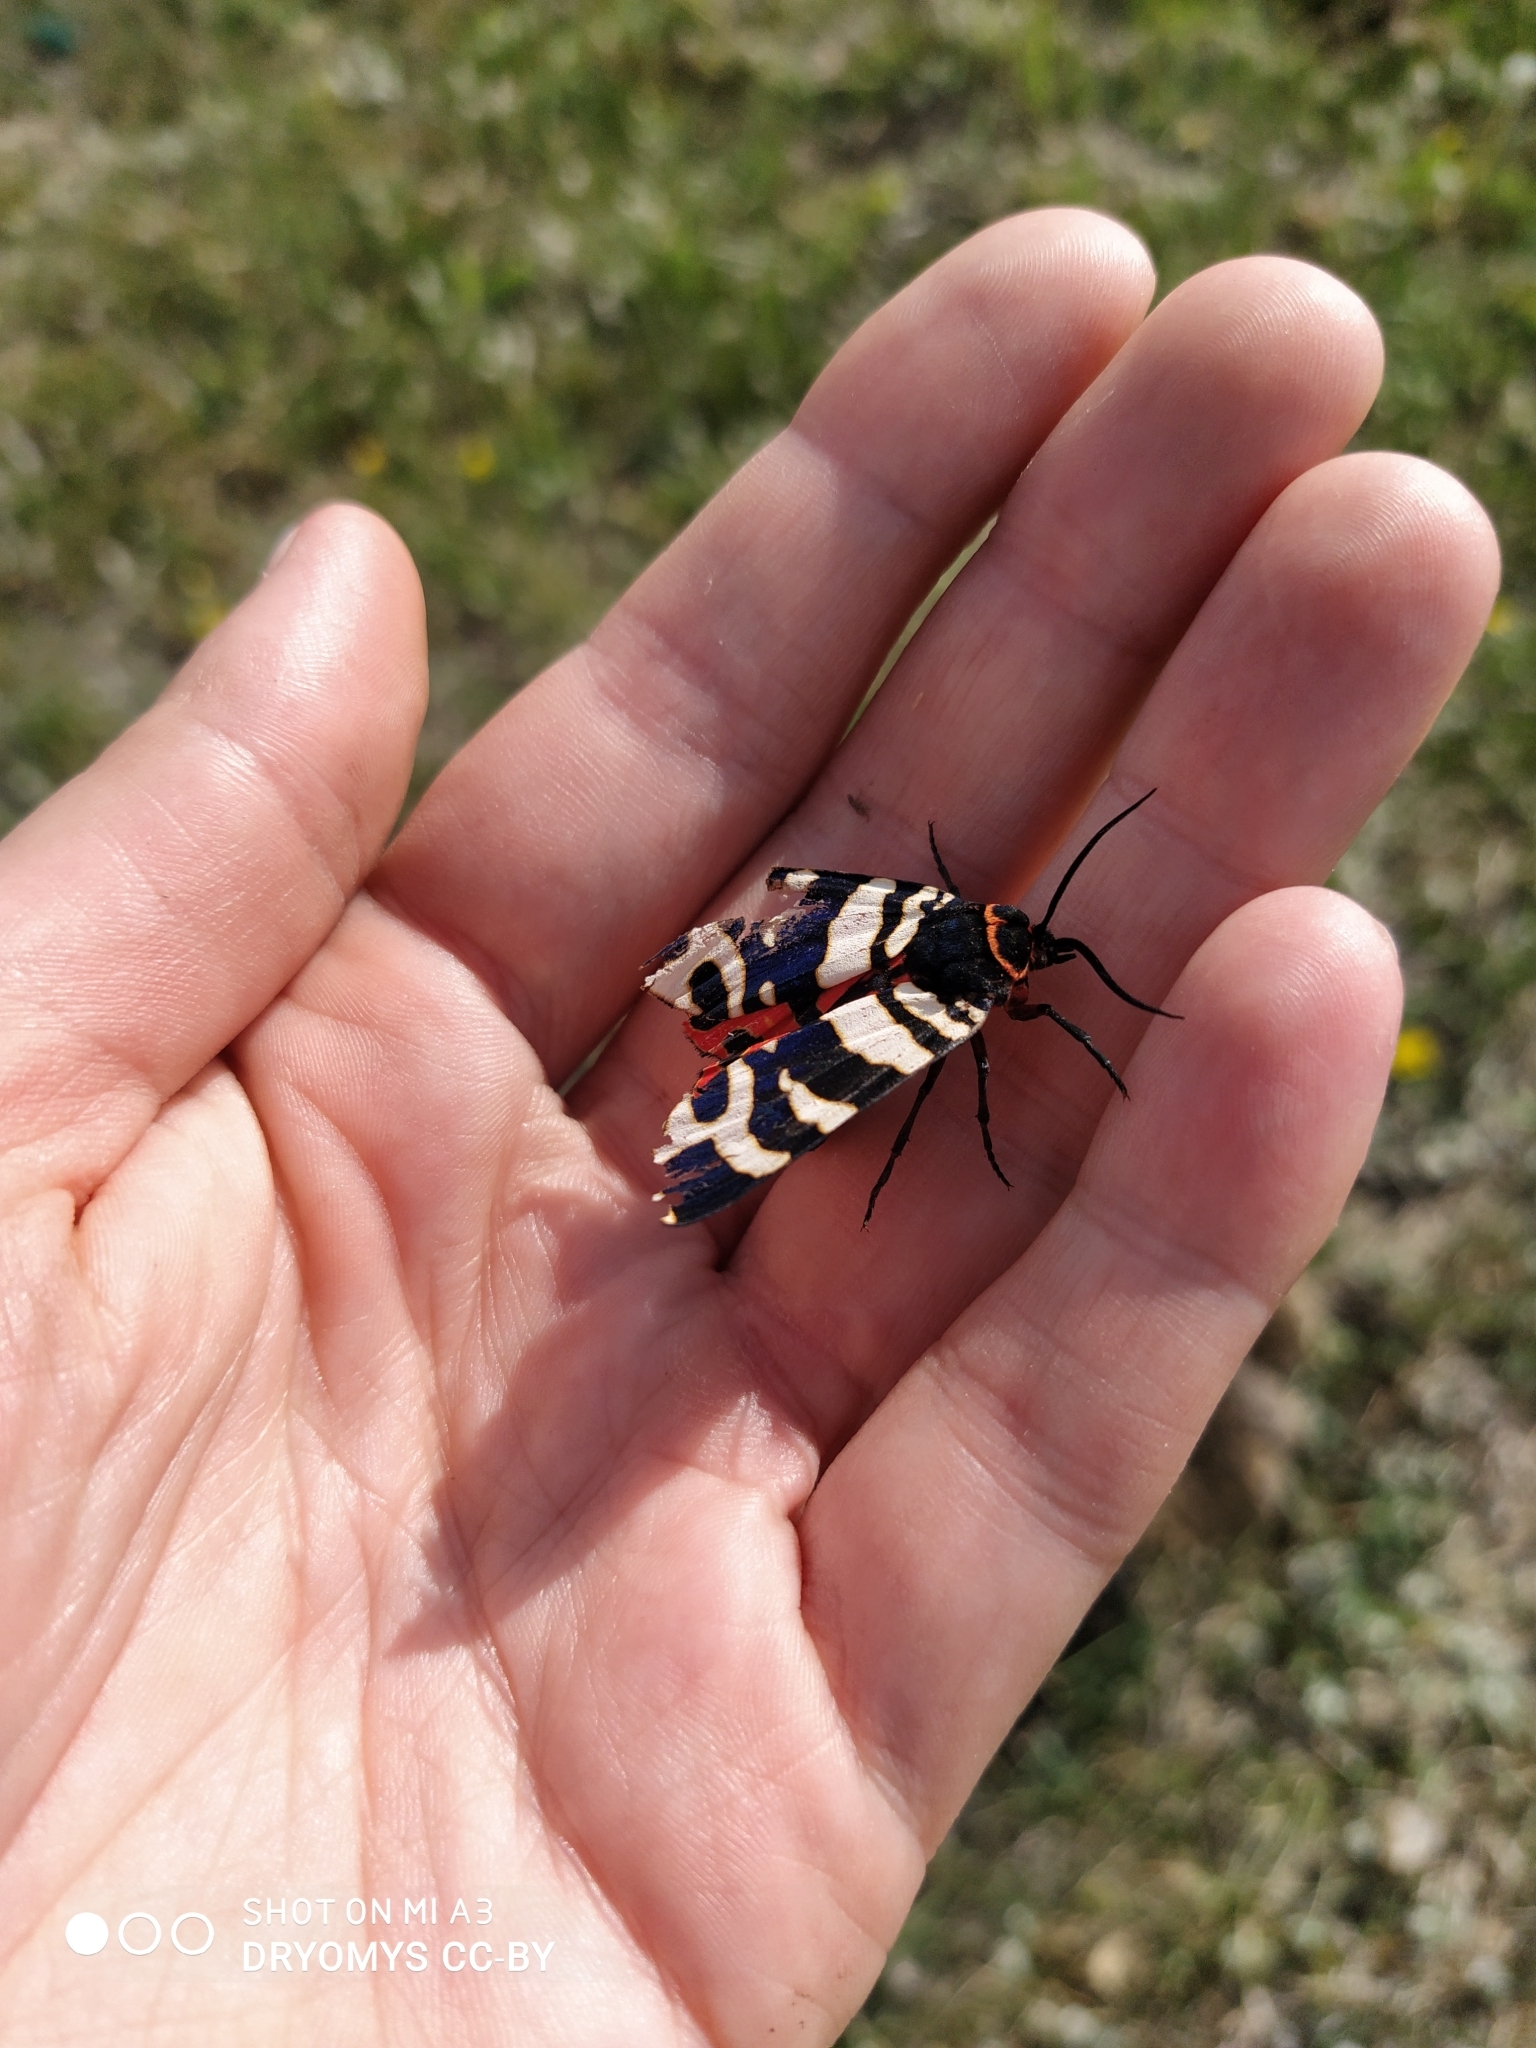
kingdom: Animalia
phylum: Arthropoda
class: Insecta
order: Lepidoptera
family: Erebidae
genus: Eucharia
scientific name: Eucharia festiva
